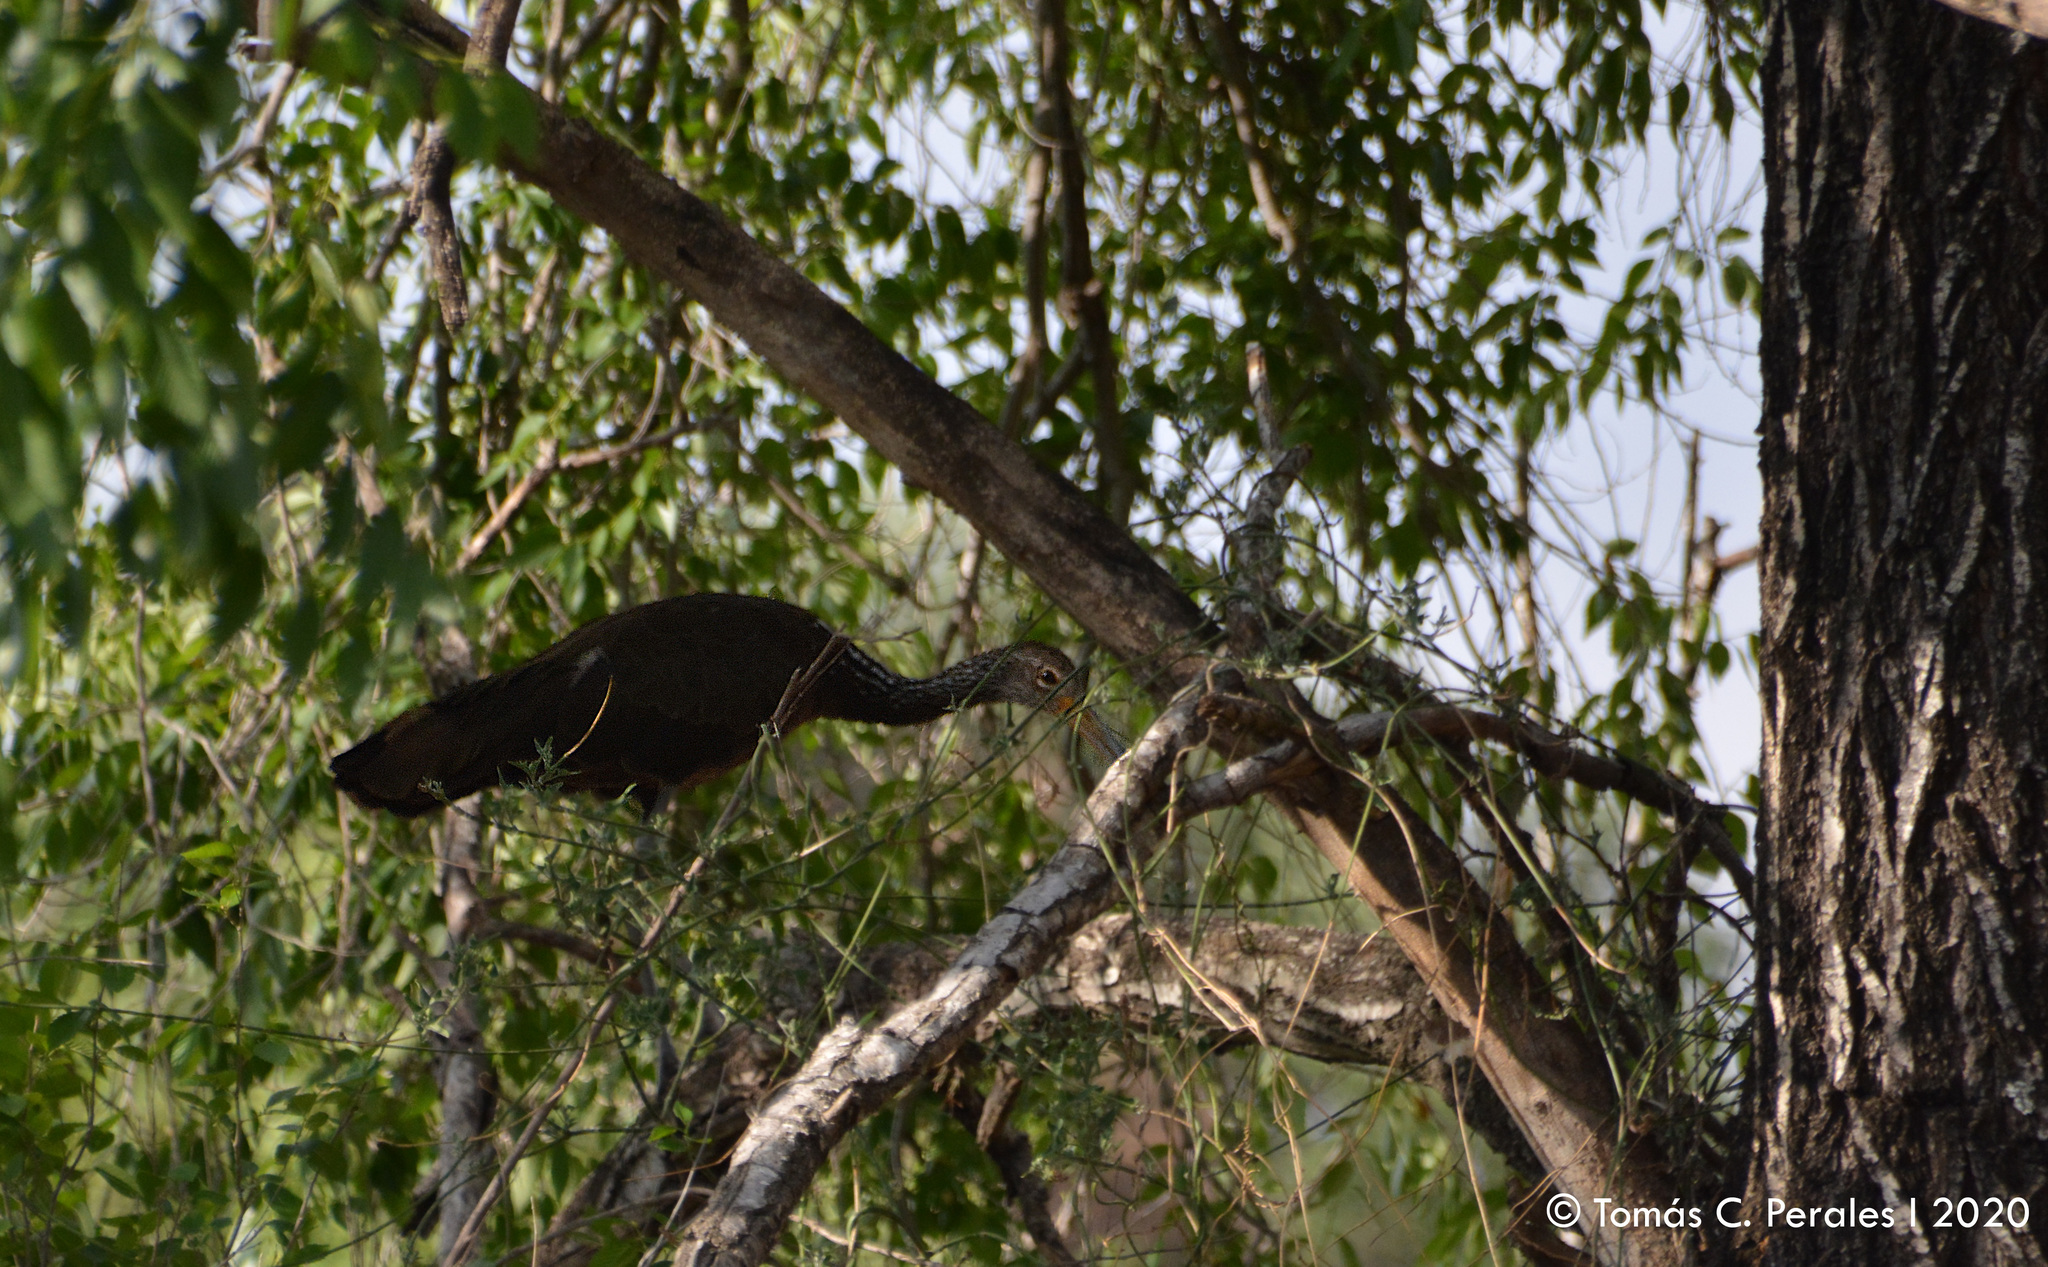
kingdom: Animalia
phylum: Chordata
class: Aves
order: Gruiformes
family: Aramidae
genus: Aramus
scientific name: Aramus guarauna
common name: Limpkin
